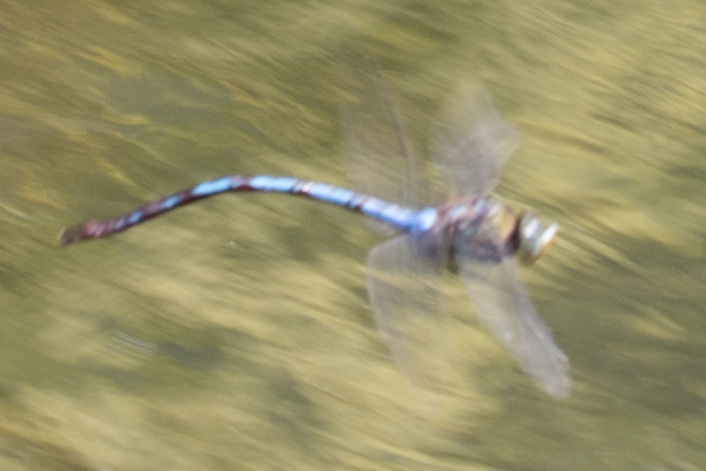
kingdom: Animalia
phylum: Arthropoda
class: Insecta
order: Odonata
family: Aeshnidae
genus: Anax
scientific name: Anax walsinghami
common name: Giant darner
